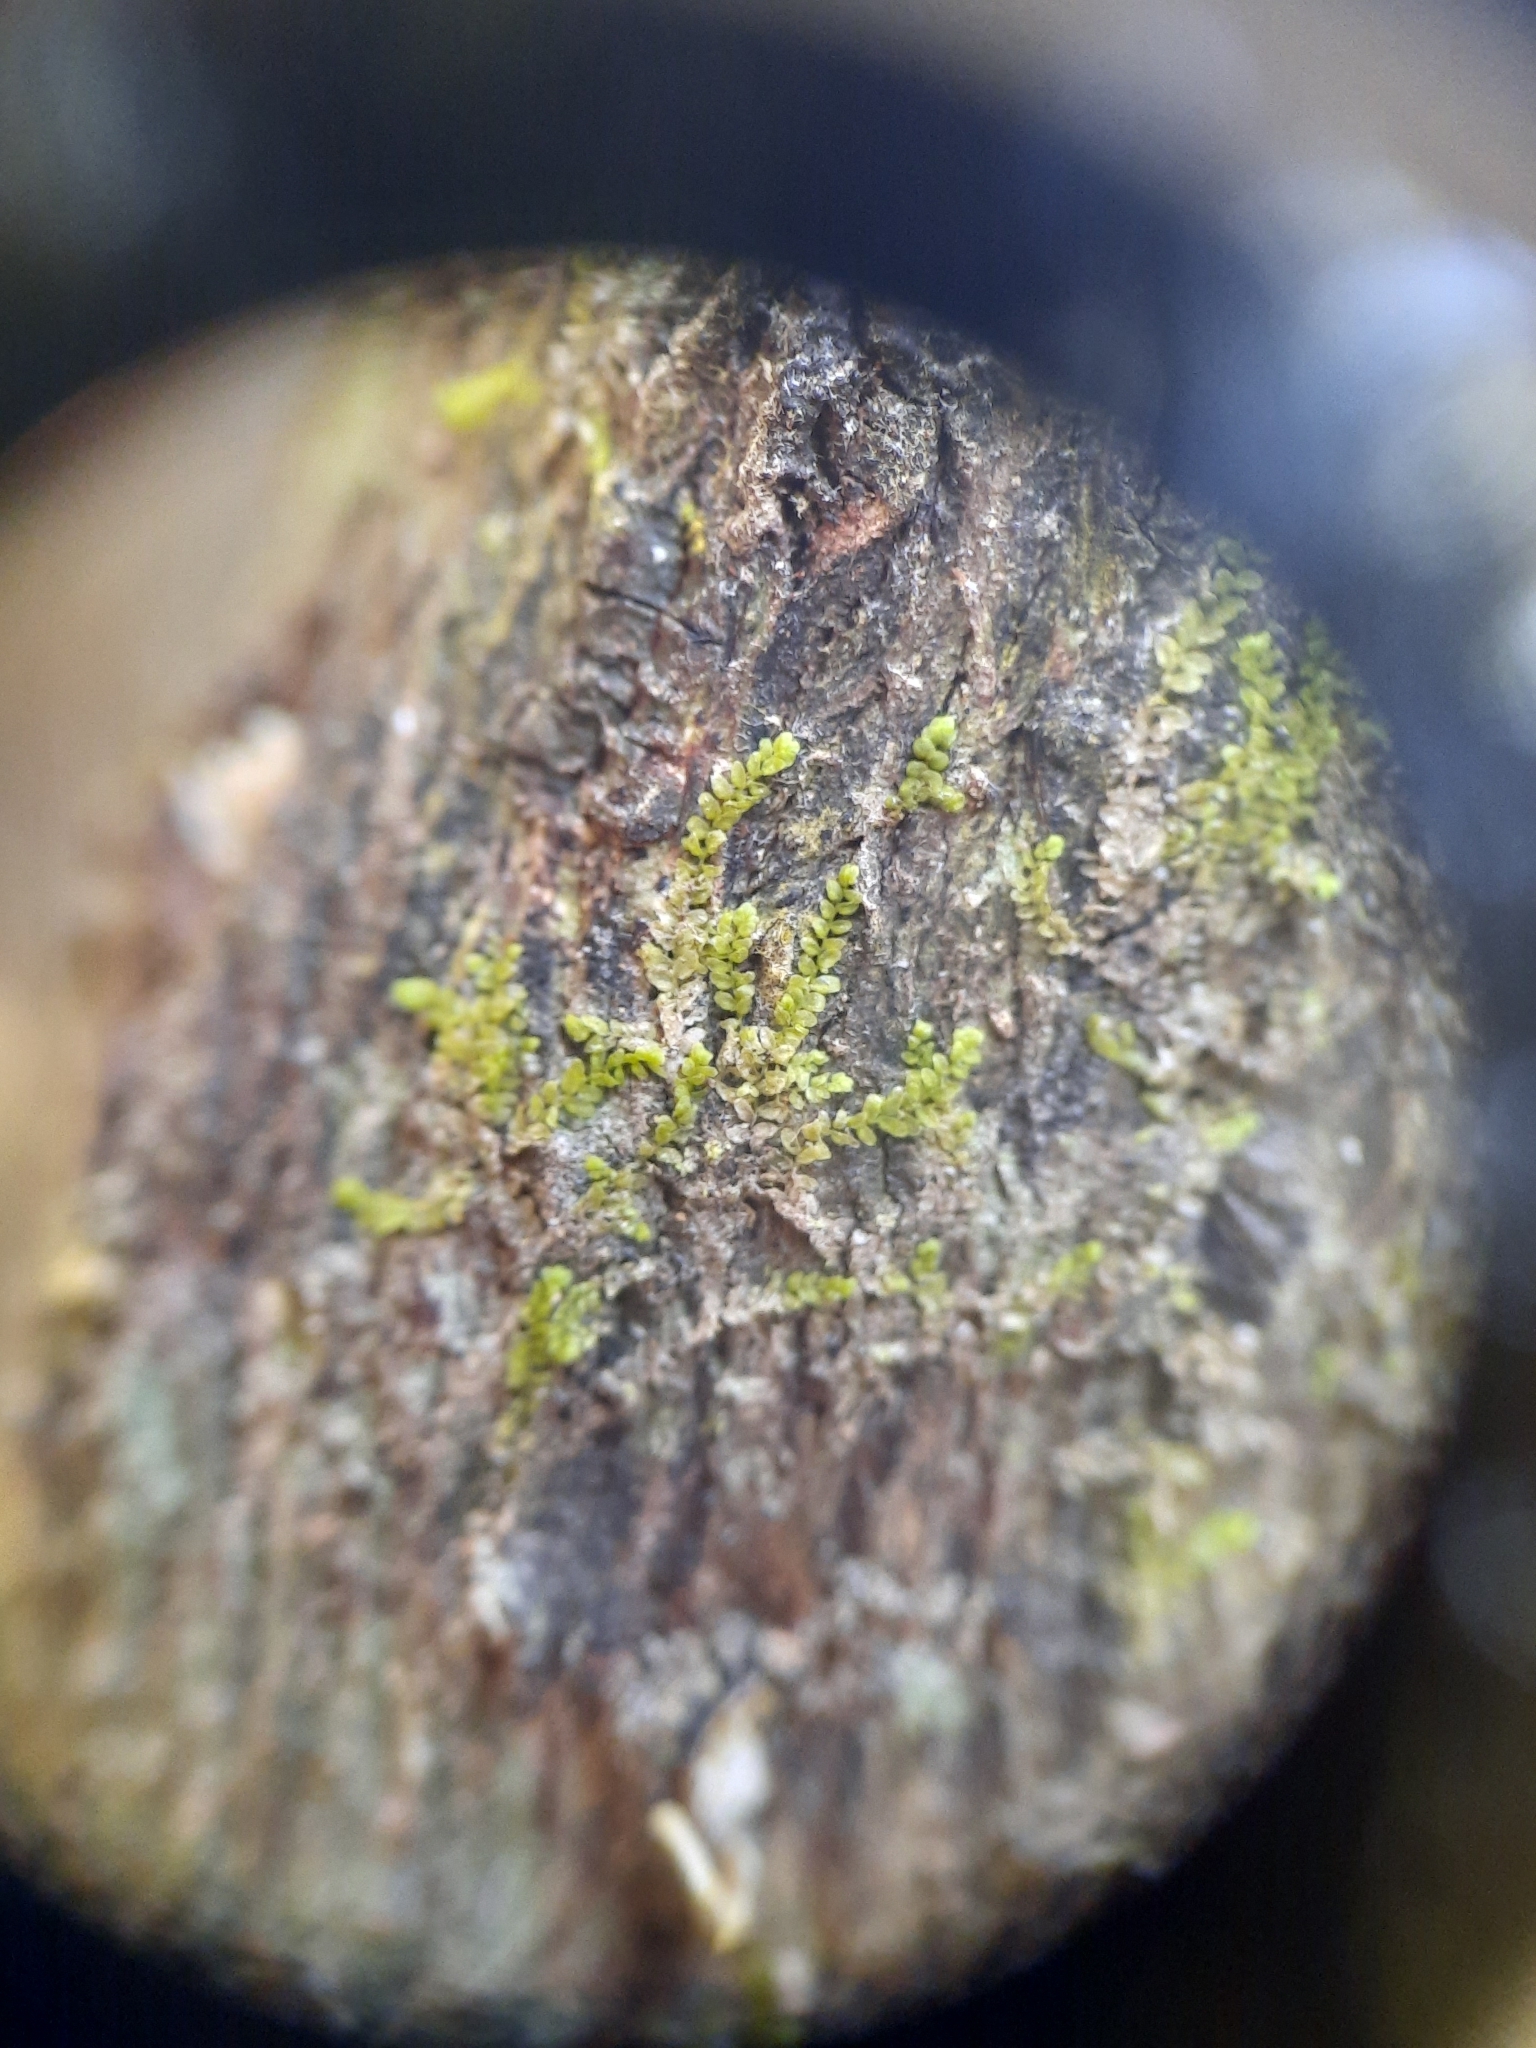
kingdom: Plantae
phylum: Marchantiophyta
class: Jungermanniopsida
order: Porellales
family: Lejeuneaceae
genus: Siphonolejeunea
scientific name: Siphonolejeunea nudipes
